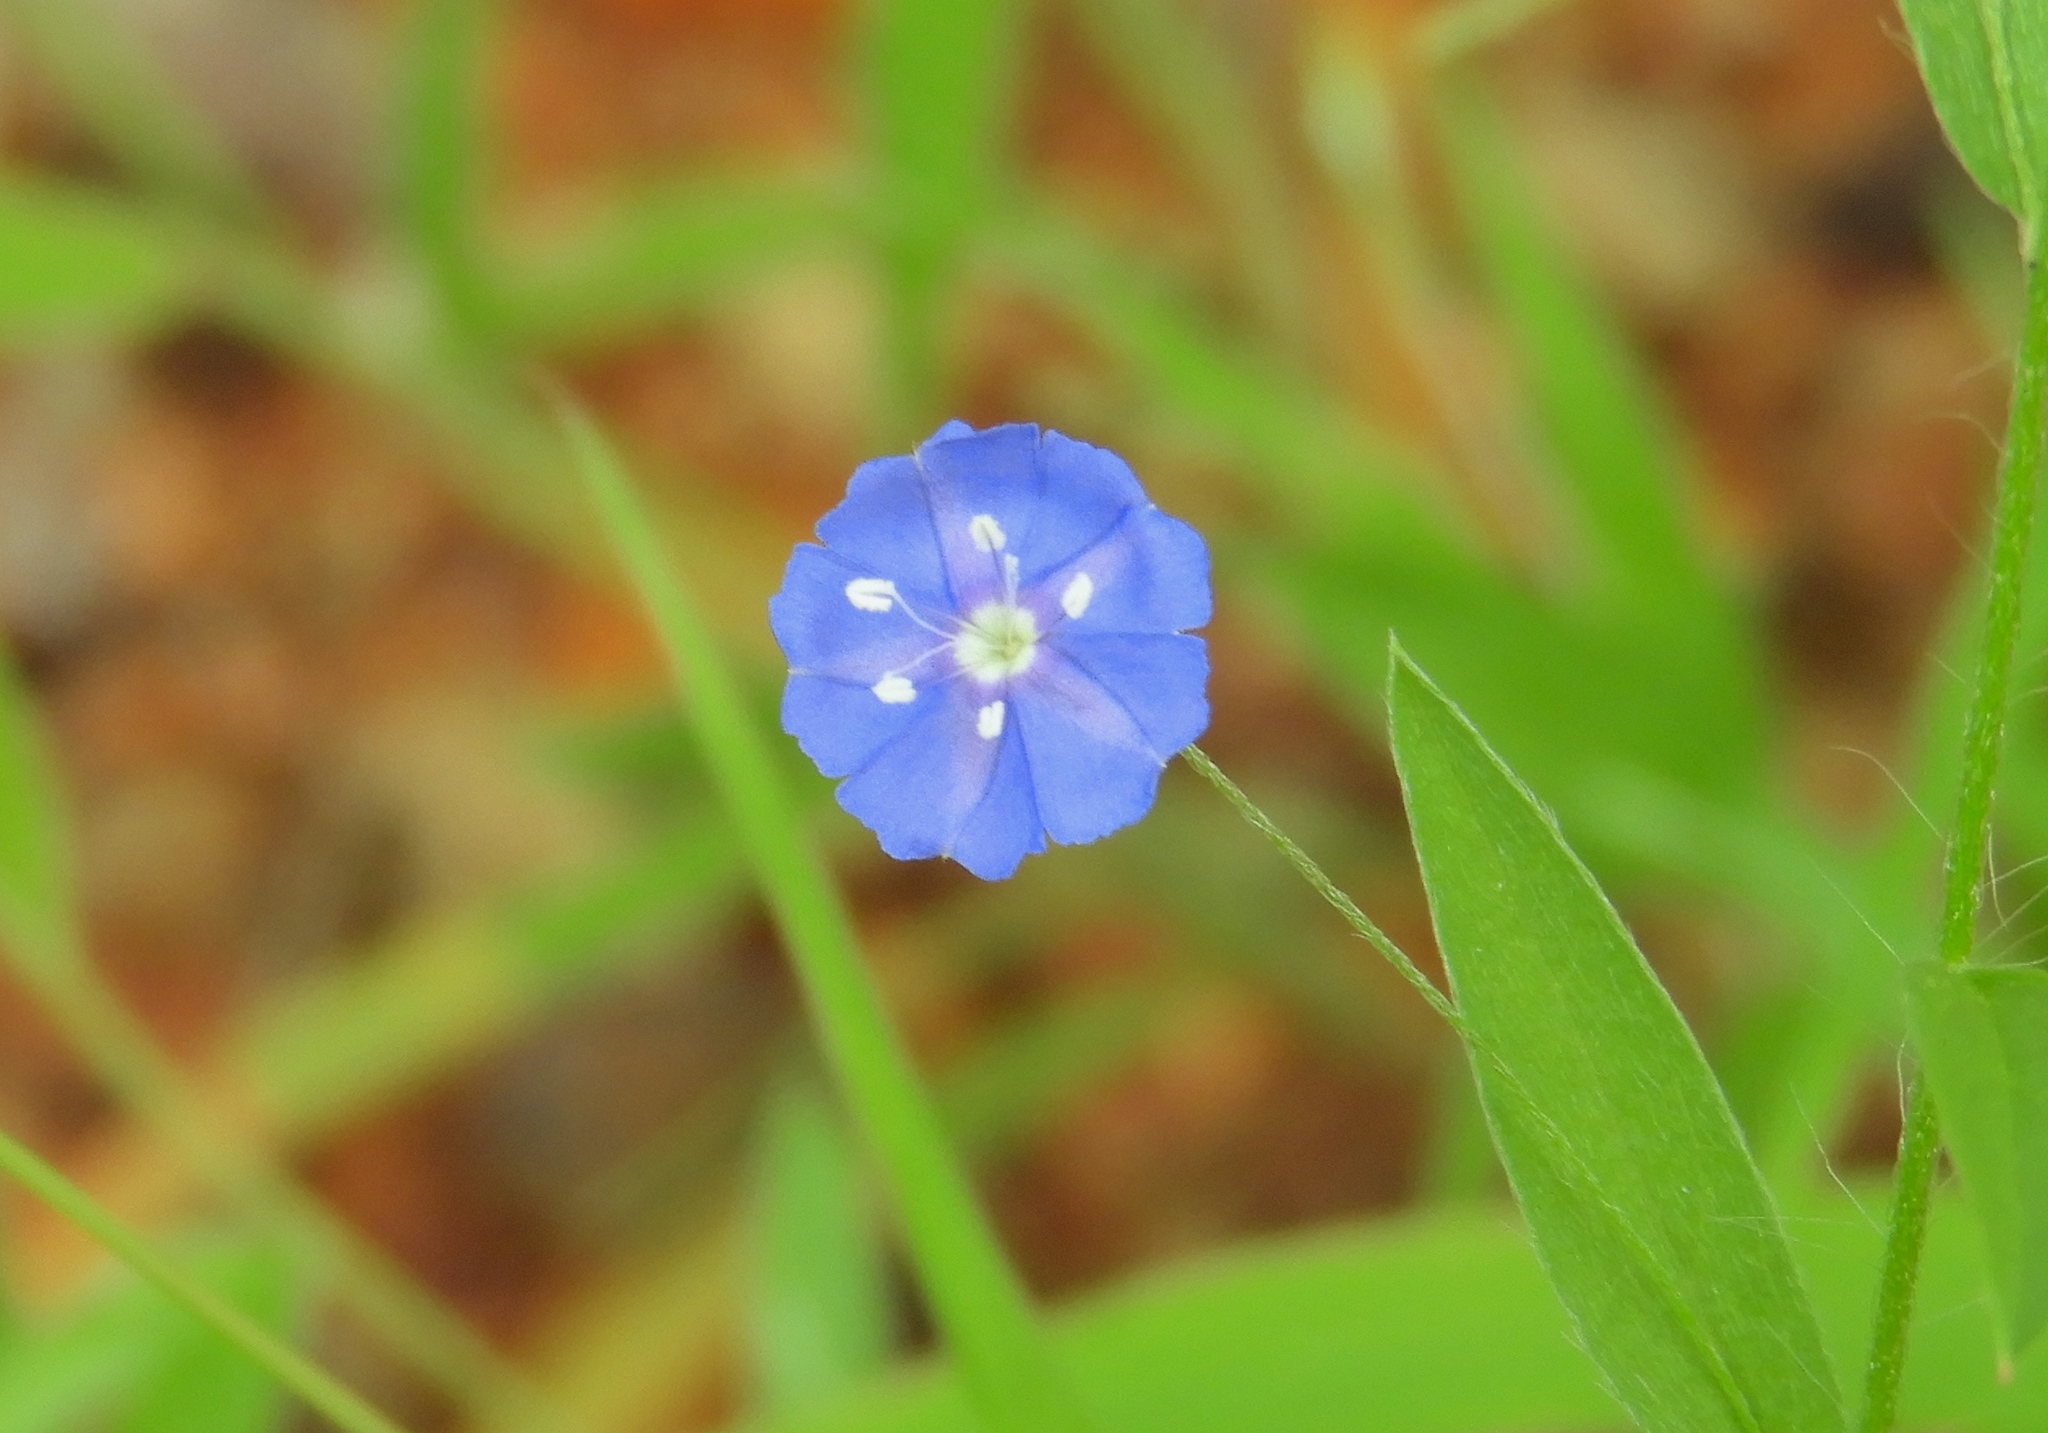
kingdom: Plantae
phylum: Tracheophyta
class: Magnoliopsida
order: Solanales
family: Convolvulaceae
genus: Evolvulus
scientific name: Evolvulus alsinoides
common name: Slender dwarf morning-glory
